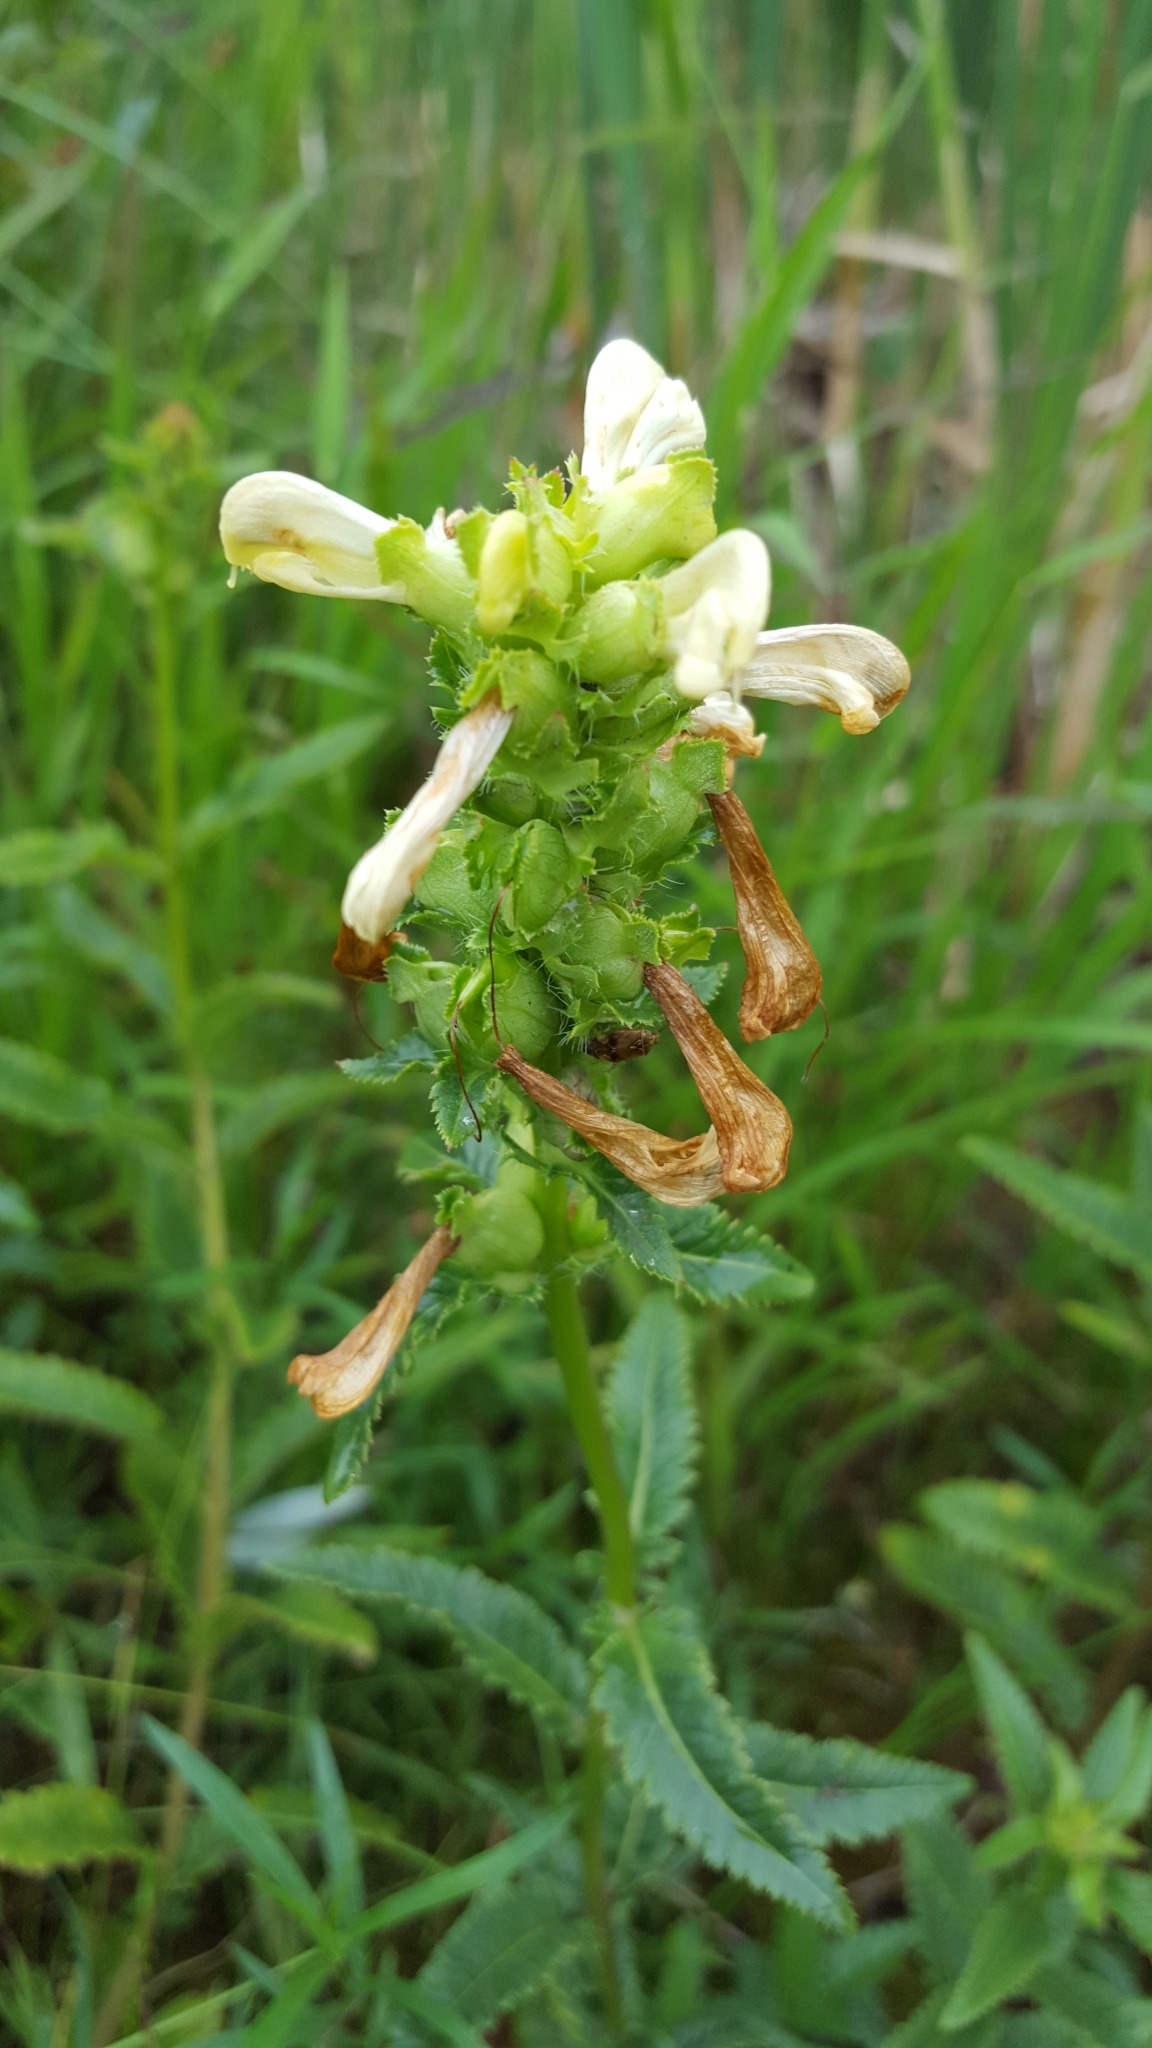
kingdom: Plantae
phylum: Tracheophyta
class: Magnoliopsida
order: Lamiales
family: Orobanchaceae
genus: Pedicularis
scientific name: Pedicularis lanceolata
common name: Swamp lousewort
